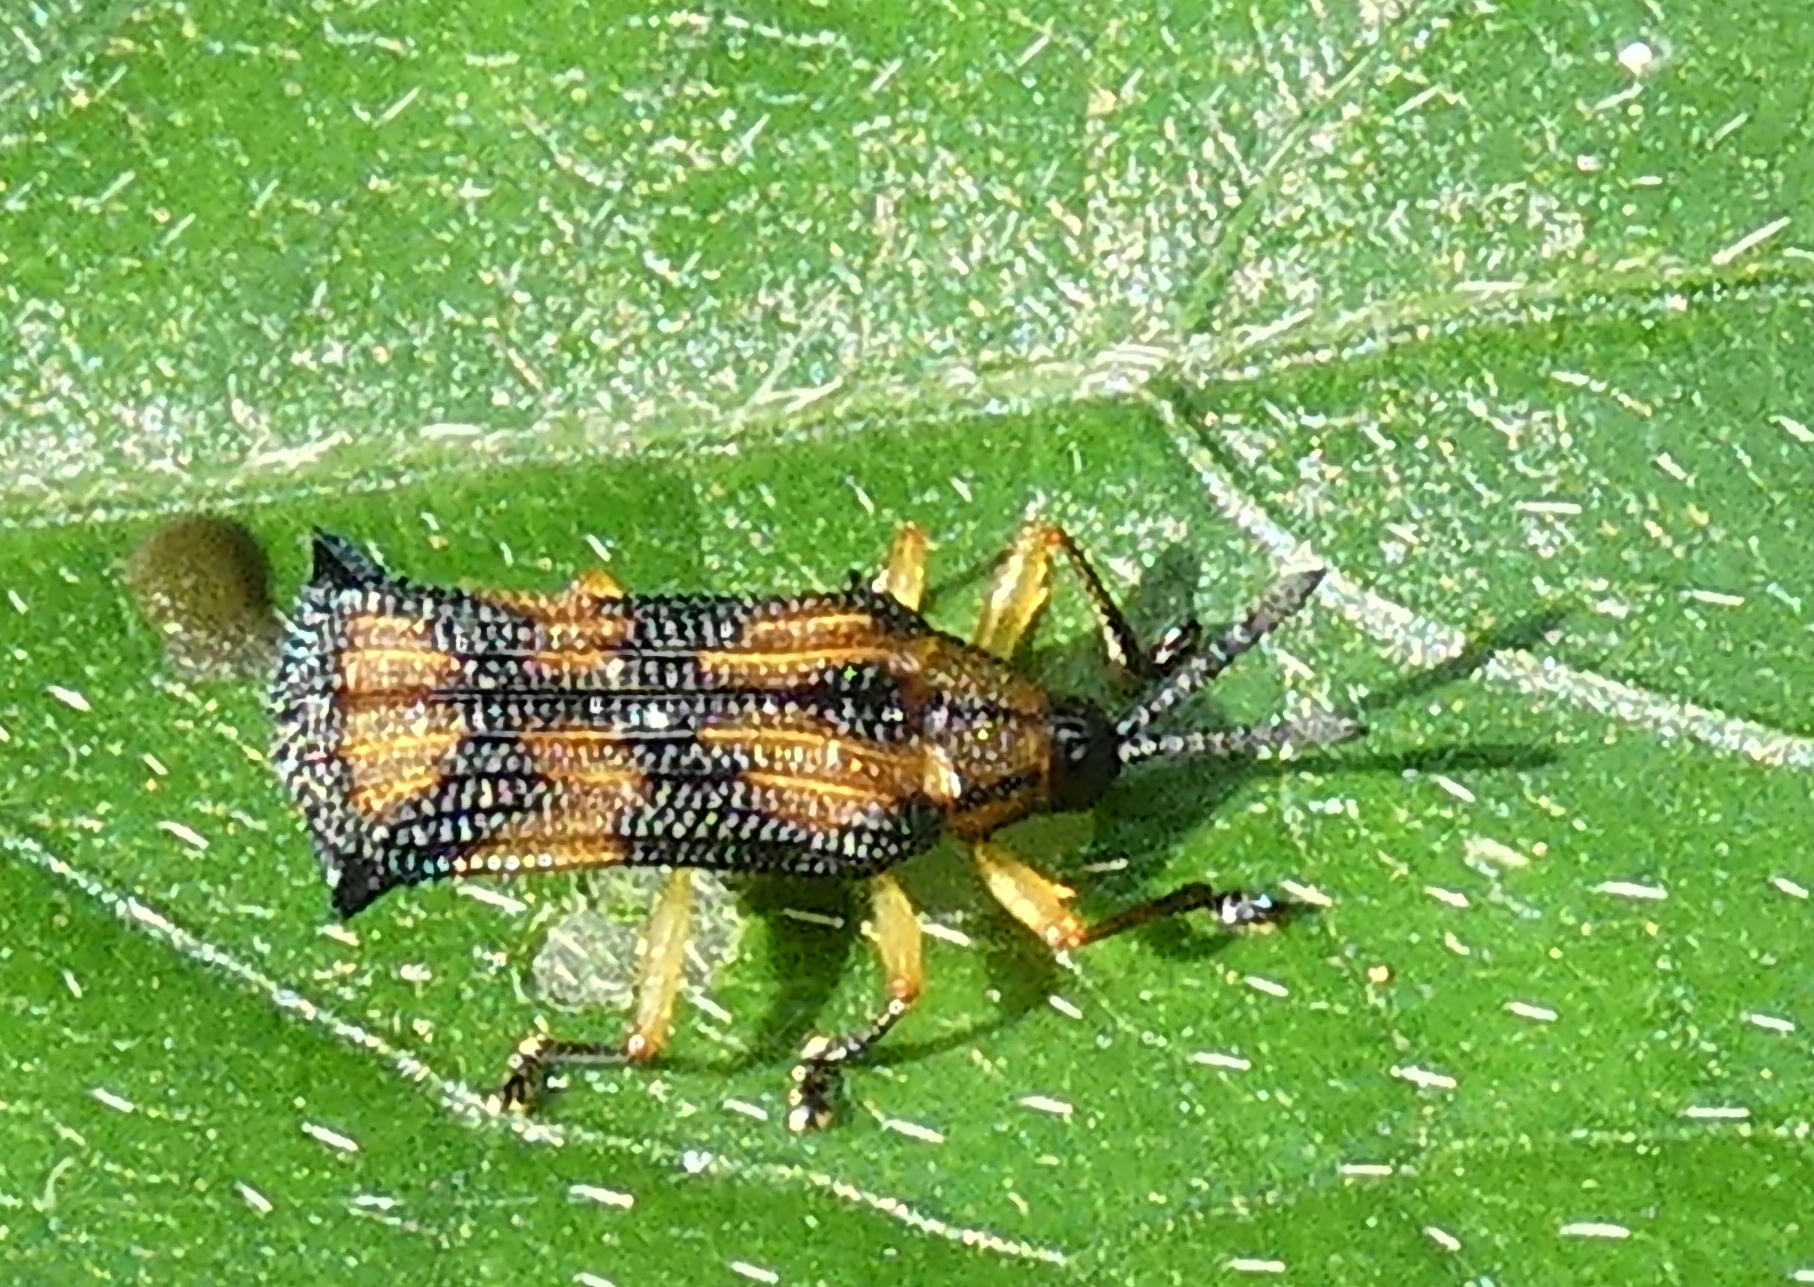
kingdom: Animalia
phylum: Arthropoda
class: Insecta
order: Coleoptera
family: Chrysomelidae
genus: Probaenia
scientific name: Probaenia luteonotata
